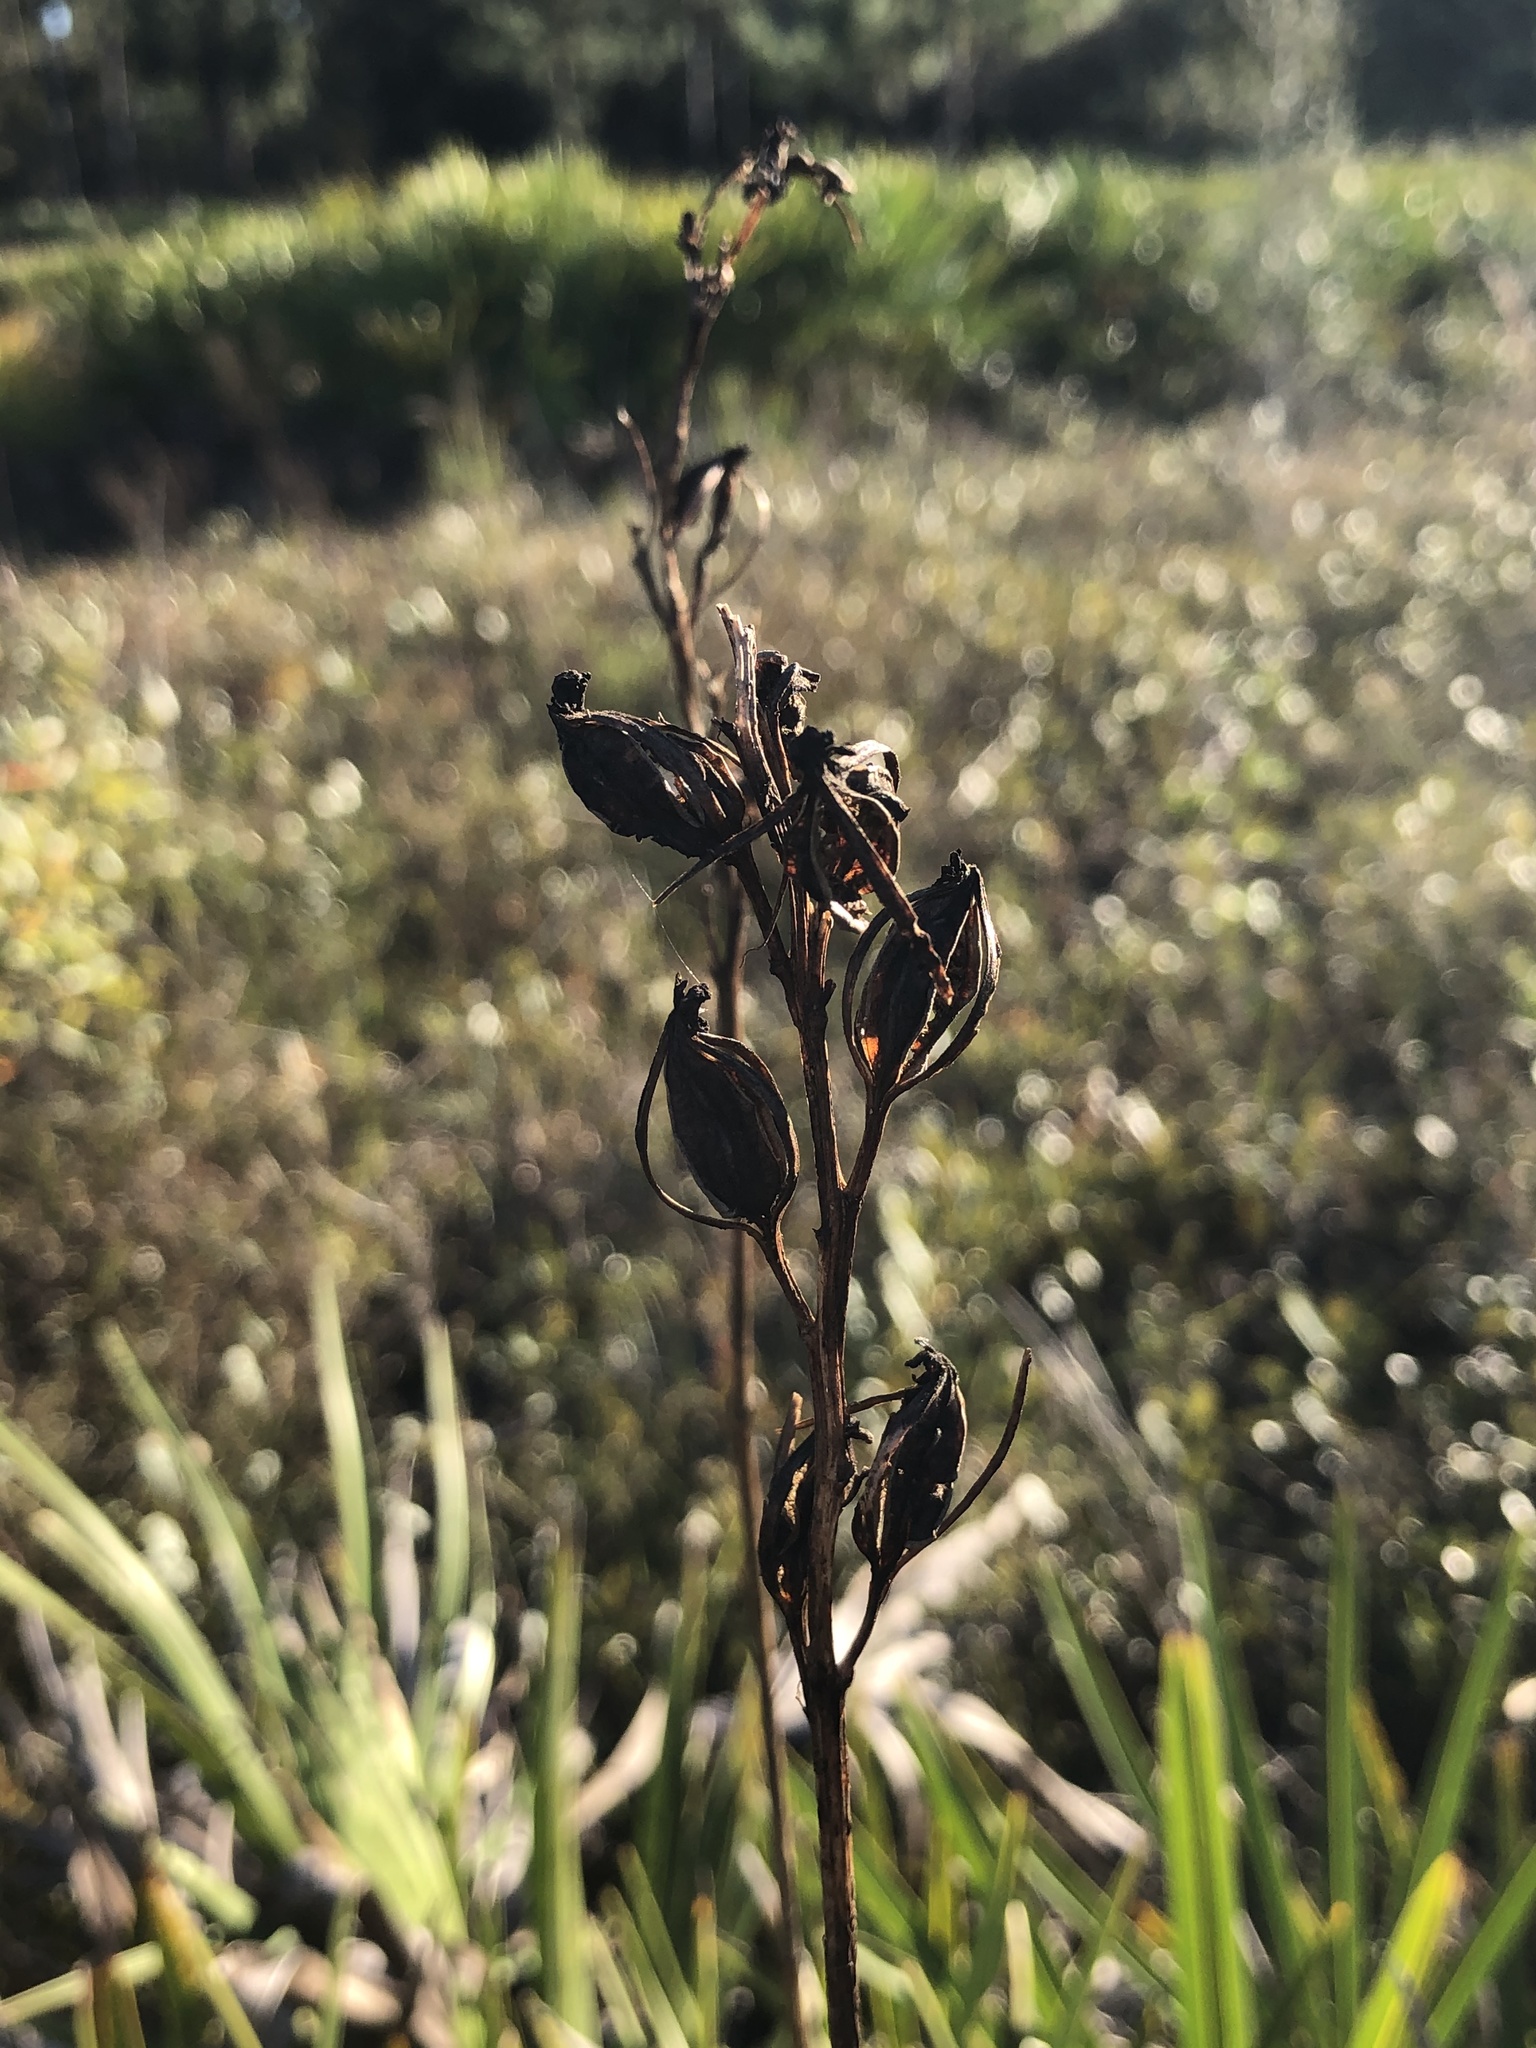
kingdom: Plantae
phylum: Tracheophyta
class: Liliopsida
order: Asparagales
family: Orchidaceae
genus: Eulophia
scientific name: Eulophia ecristata
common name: Giant orchid
